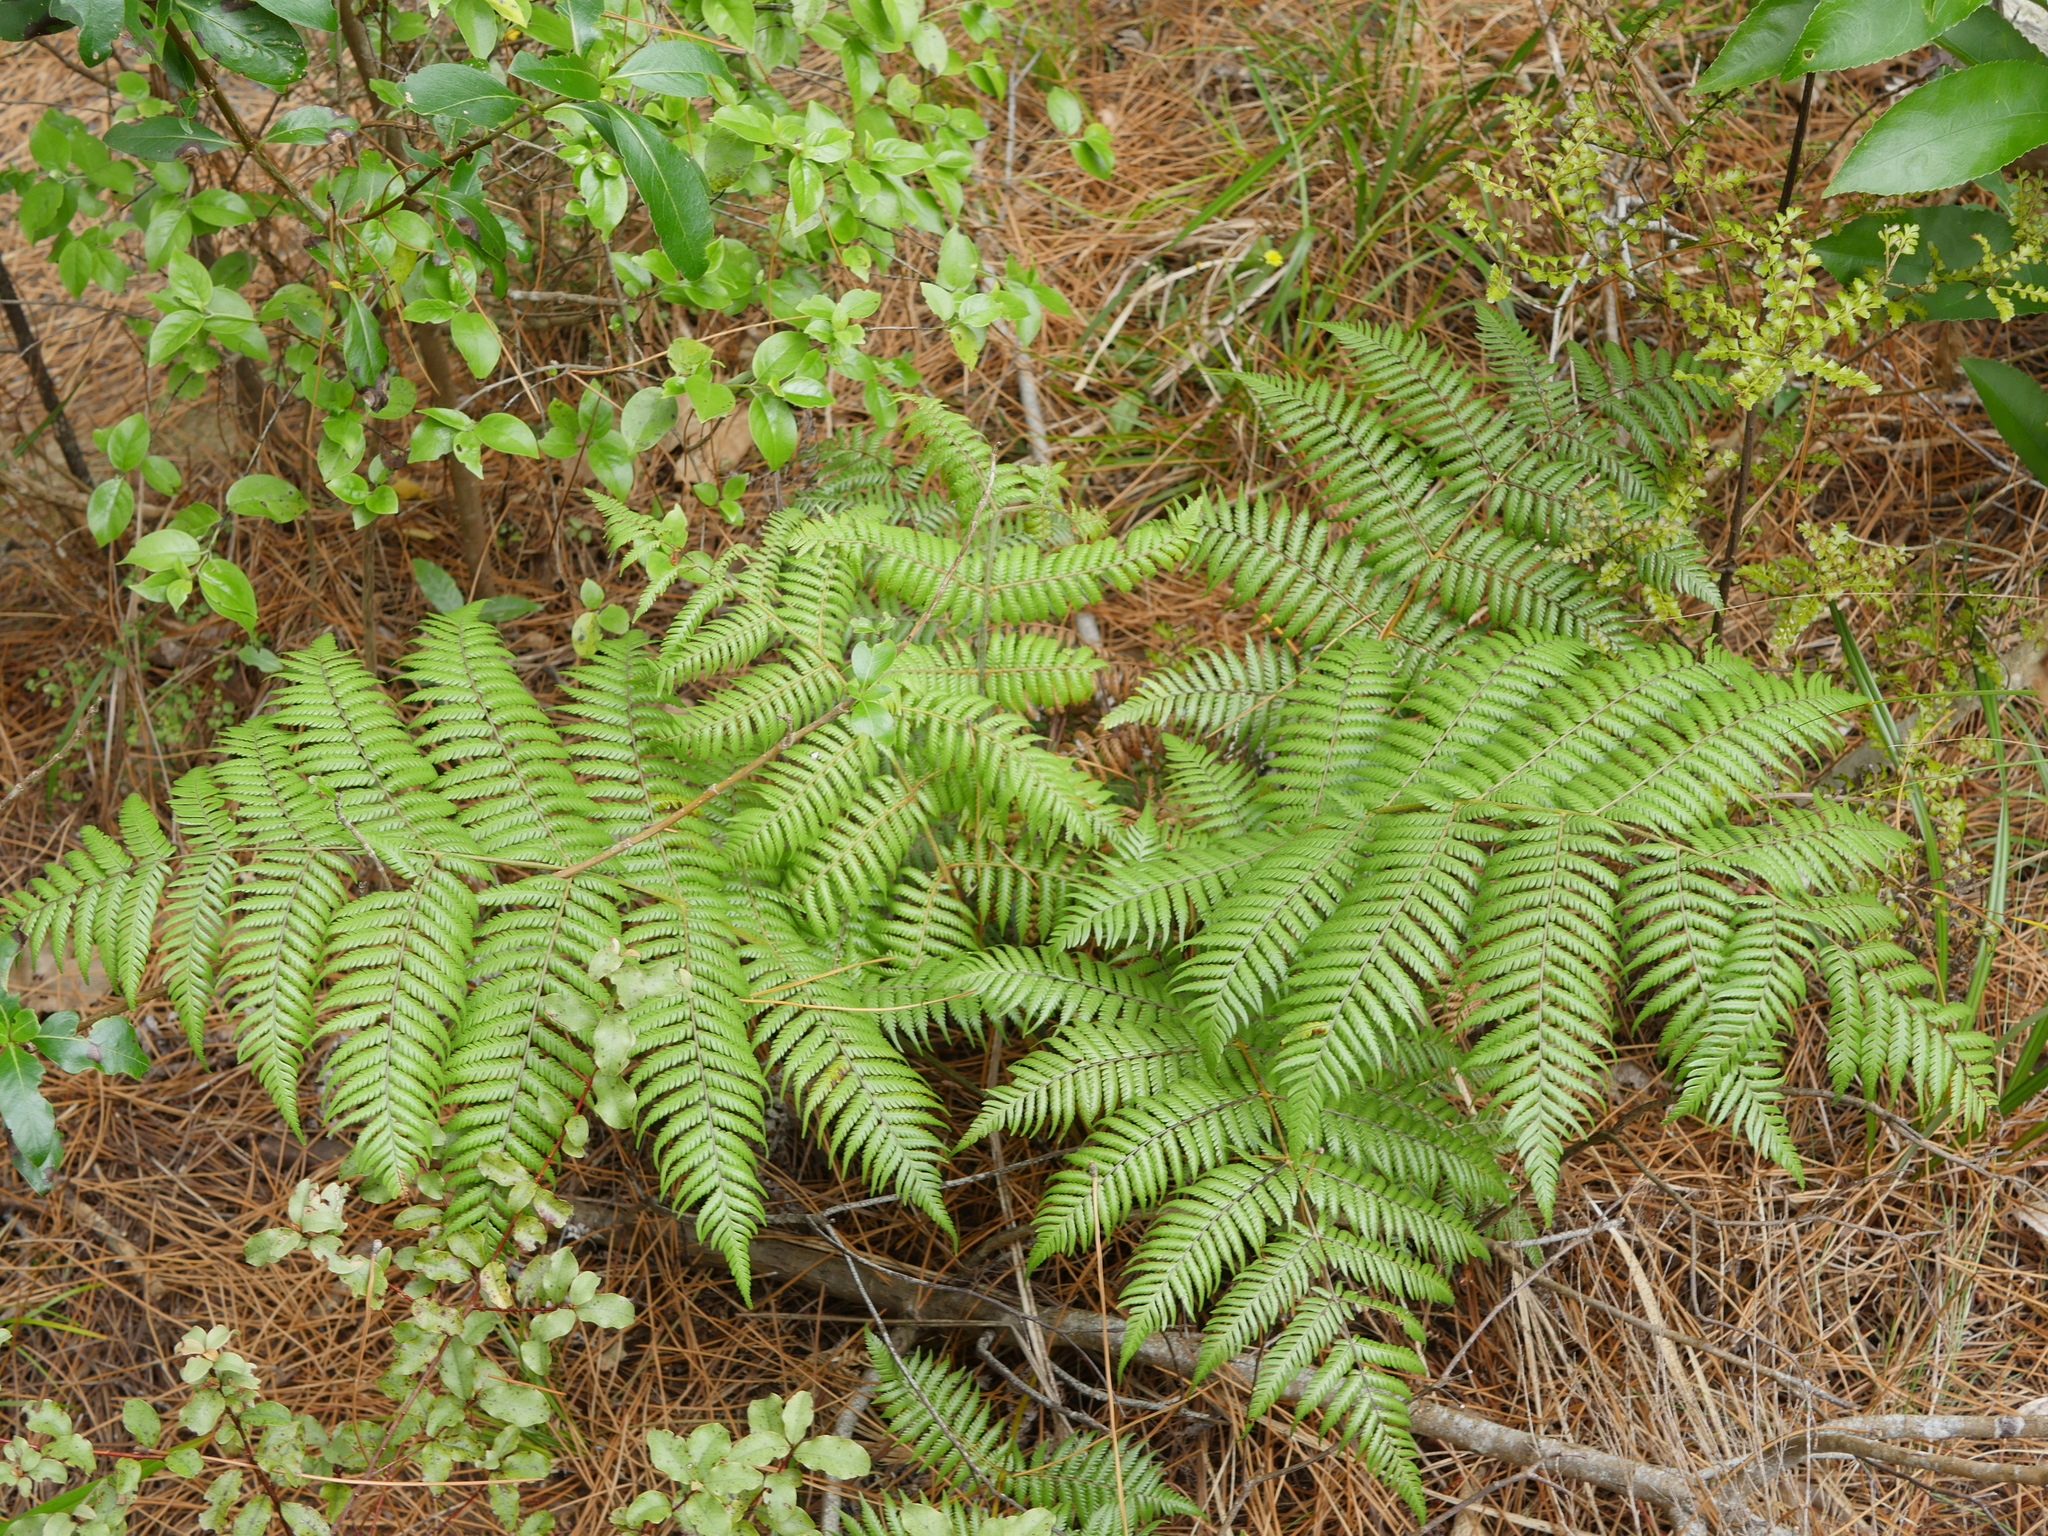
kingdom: Plantae
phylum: Tracheophyta
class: Polypodiopsida
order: Cyatheales
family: Cyatheaceae
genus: Alsophila
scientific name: Alsophila dealbata
